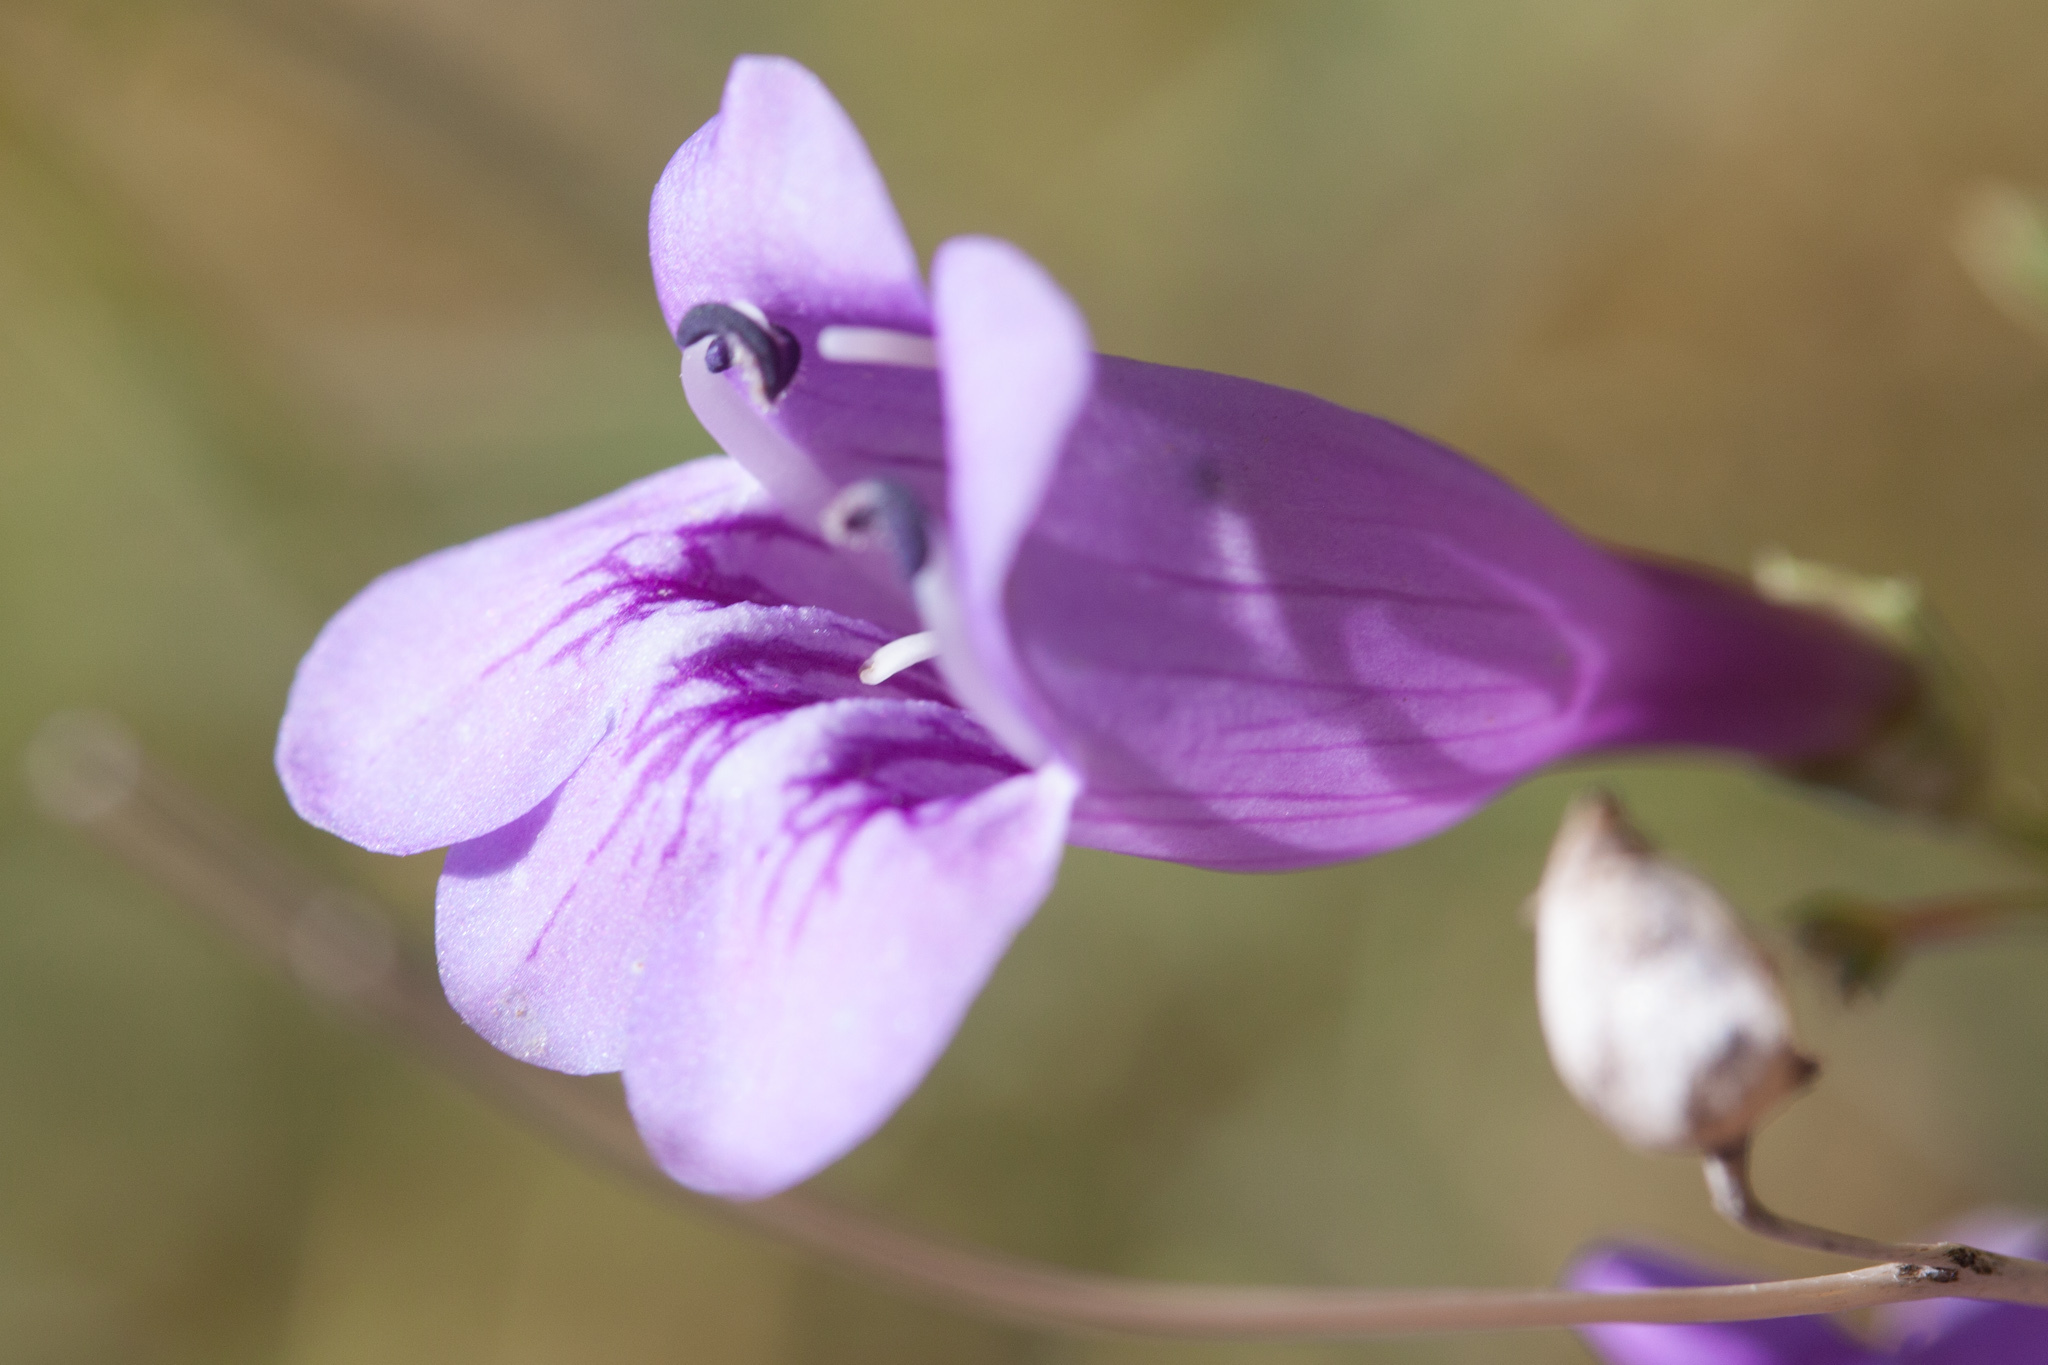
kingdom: Plantae
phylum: Tracheophyta
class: Magnoliopsida
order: Lamiales
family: Plantaginaceae
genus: Penstemon
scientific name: Penstemon heterophyllus
